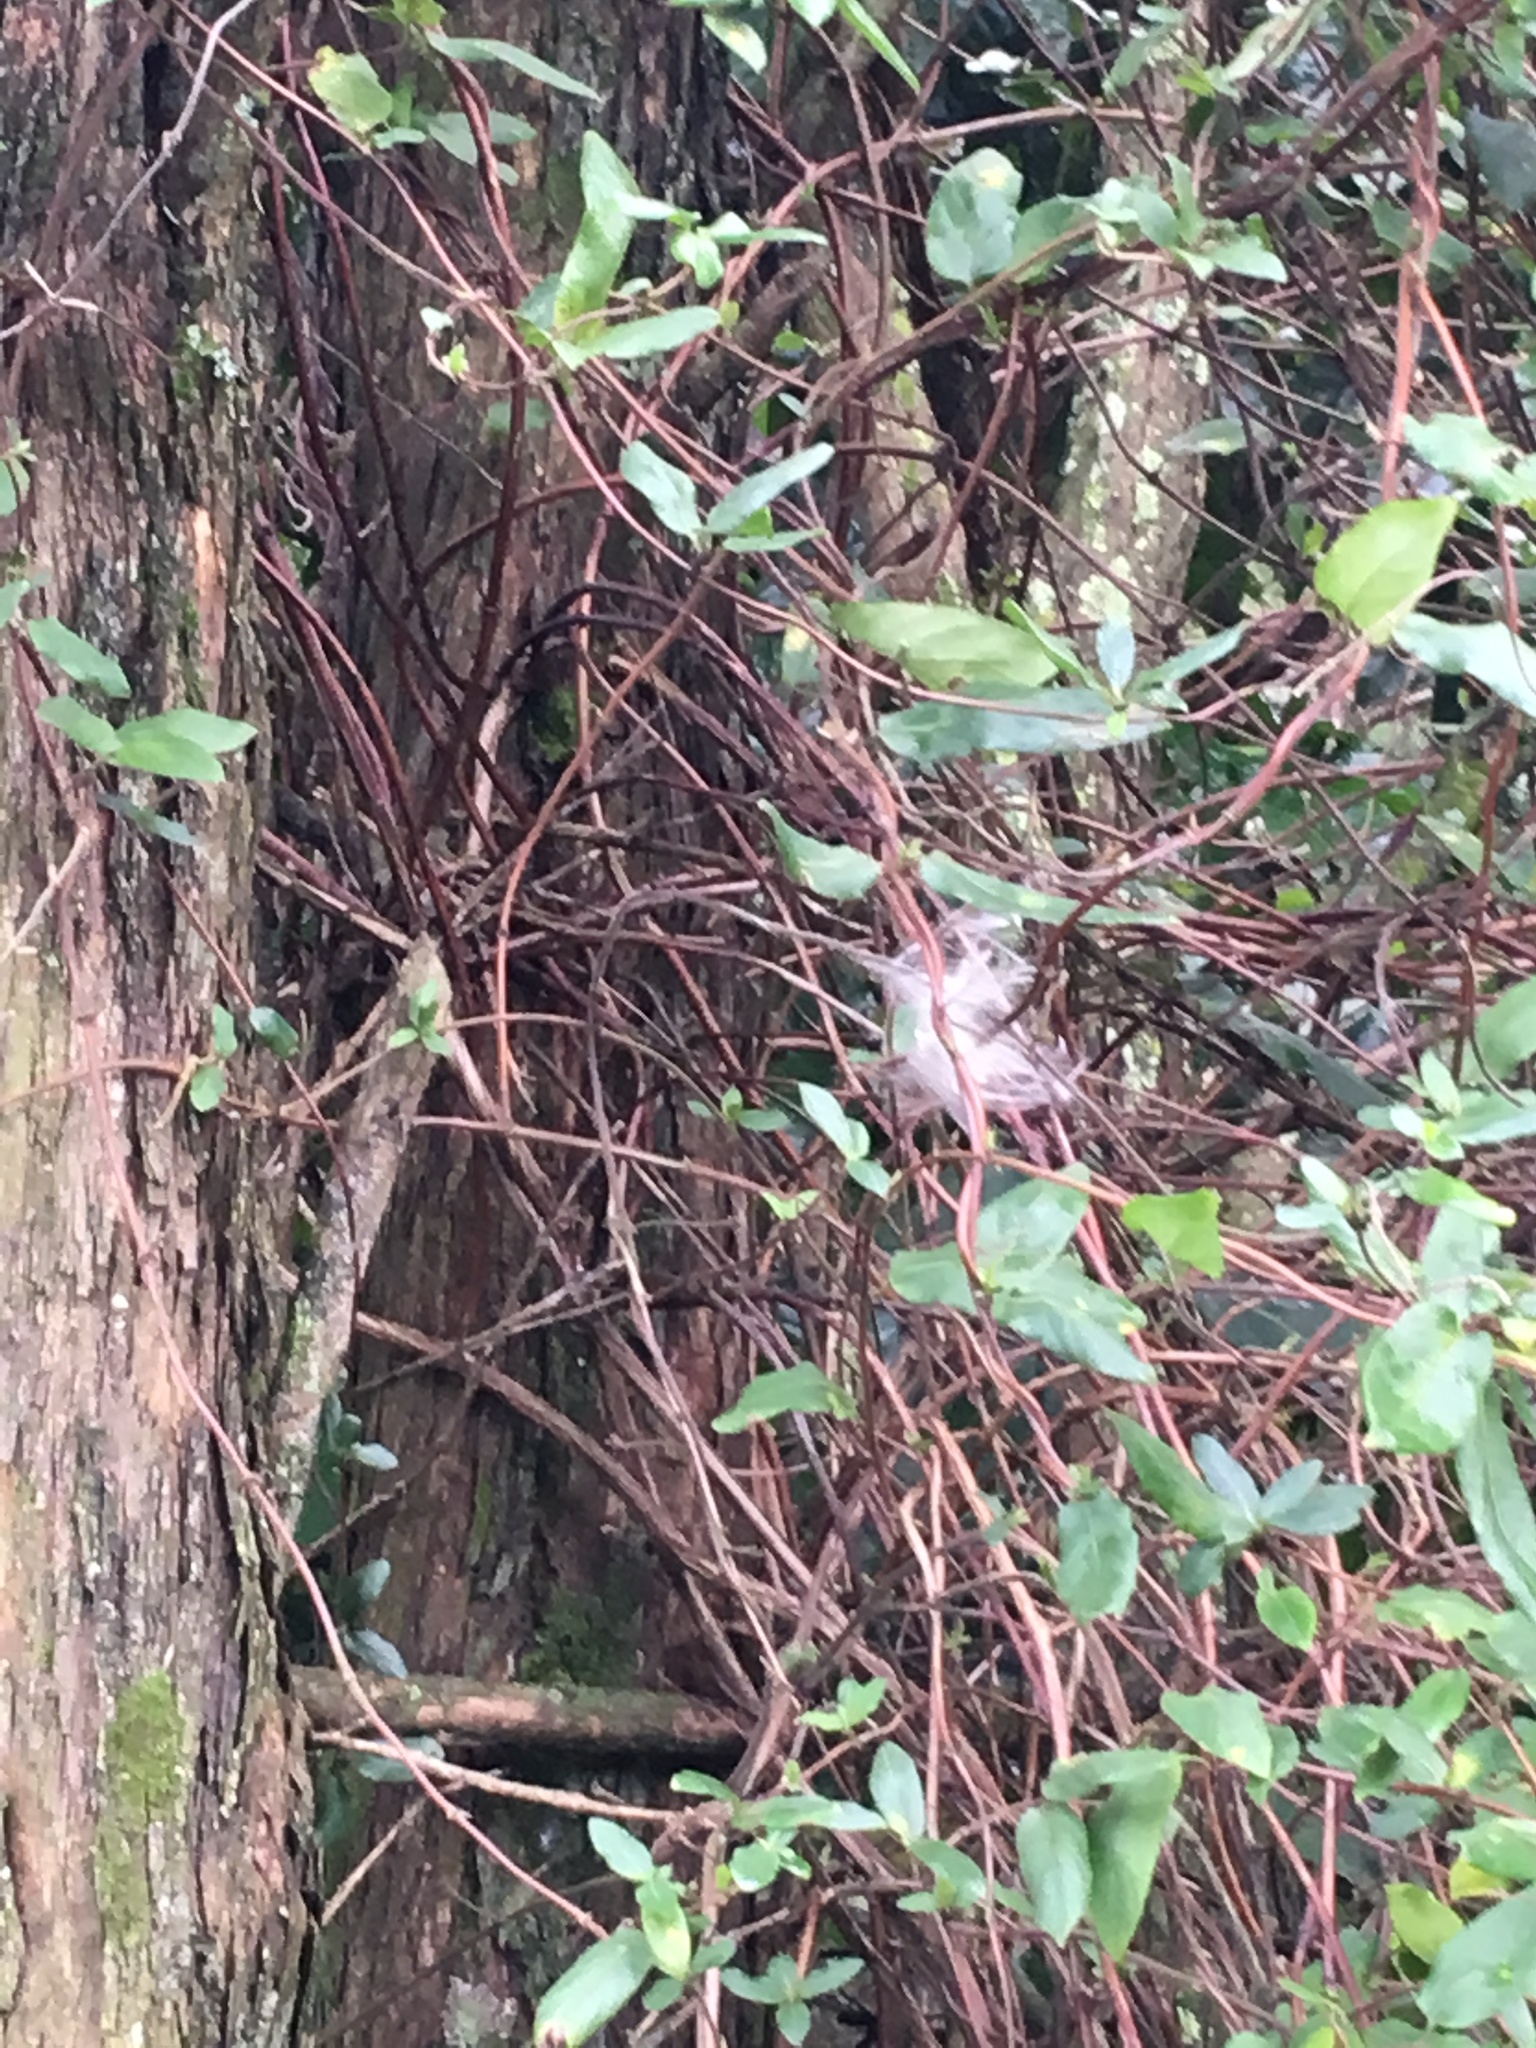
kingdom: Plantae
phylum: Tracheophyta
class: Magnoliopsida
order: Dipsacales
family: Caprifoliaceae
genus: Lonicera
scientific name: Lonicera japonica
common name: Japanese honeysuckle
